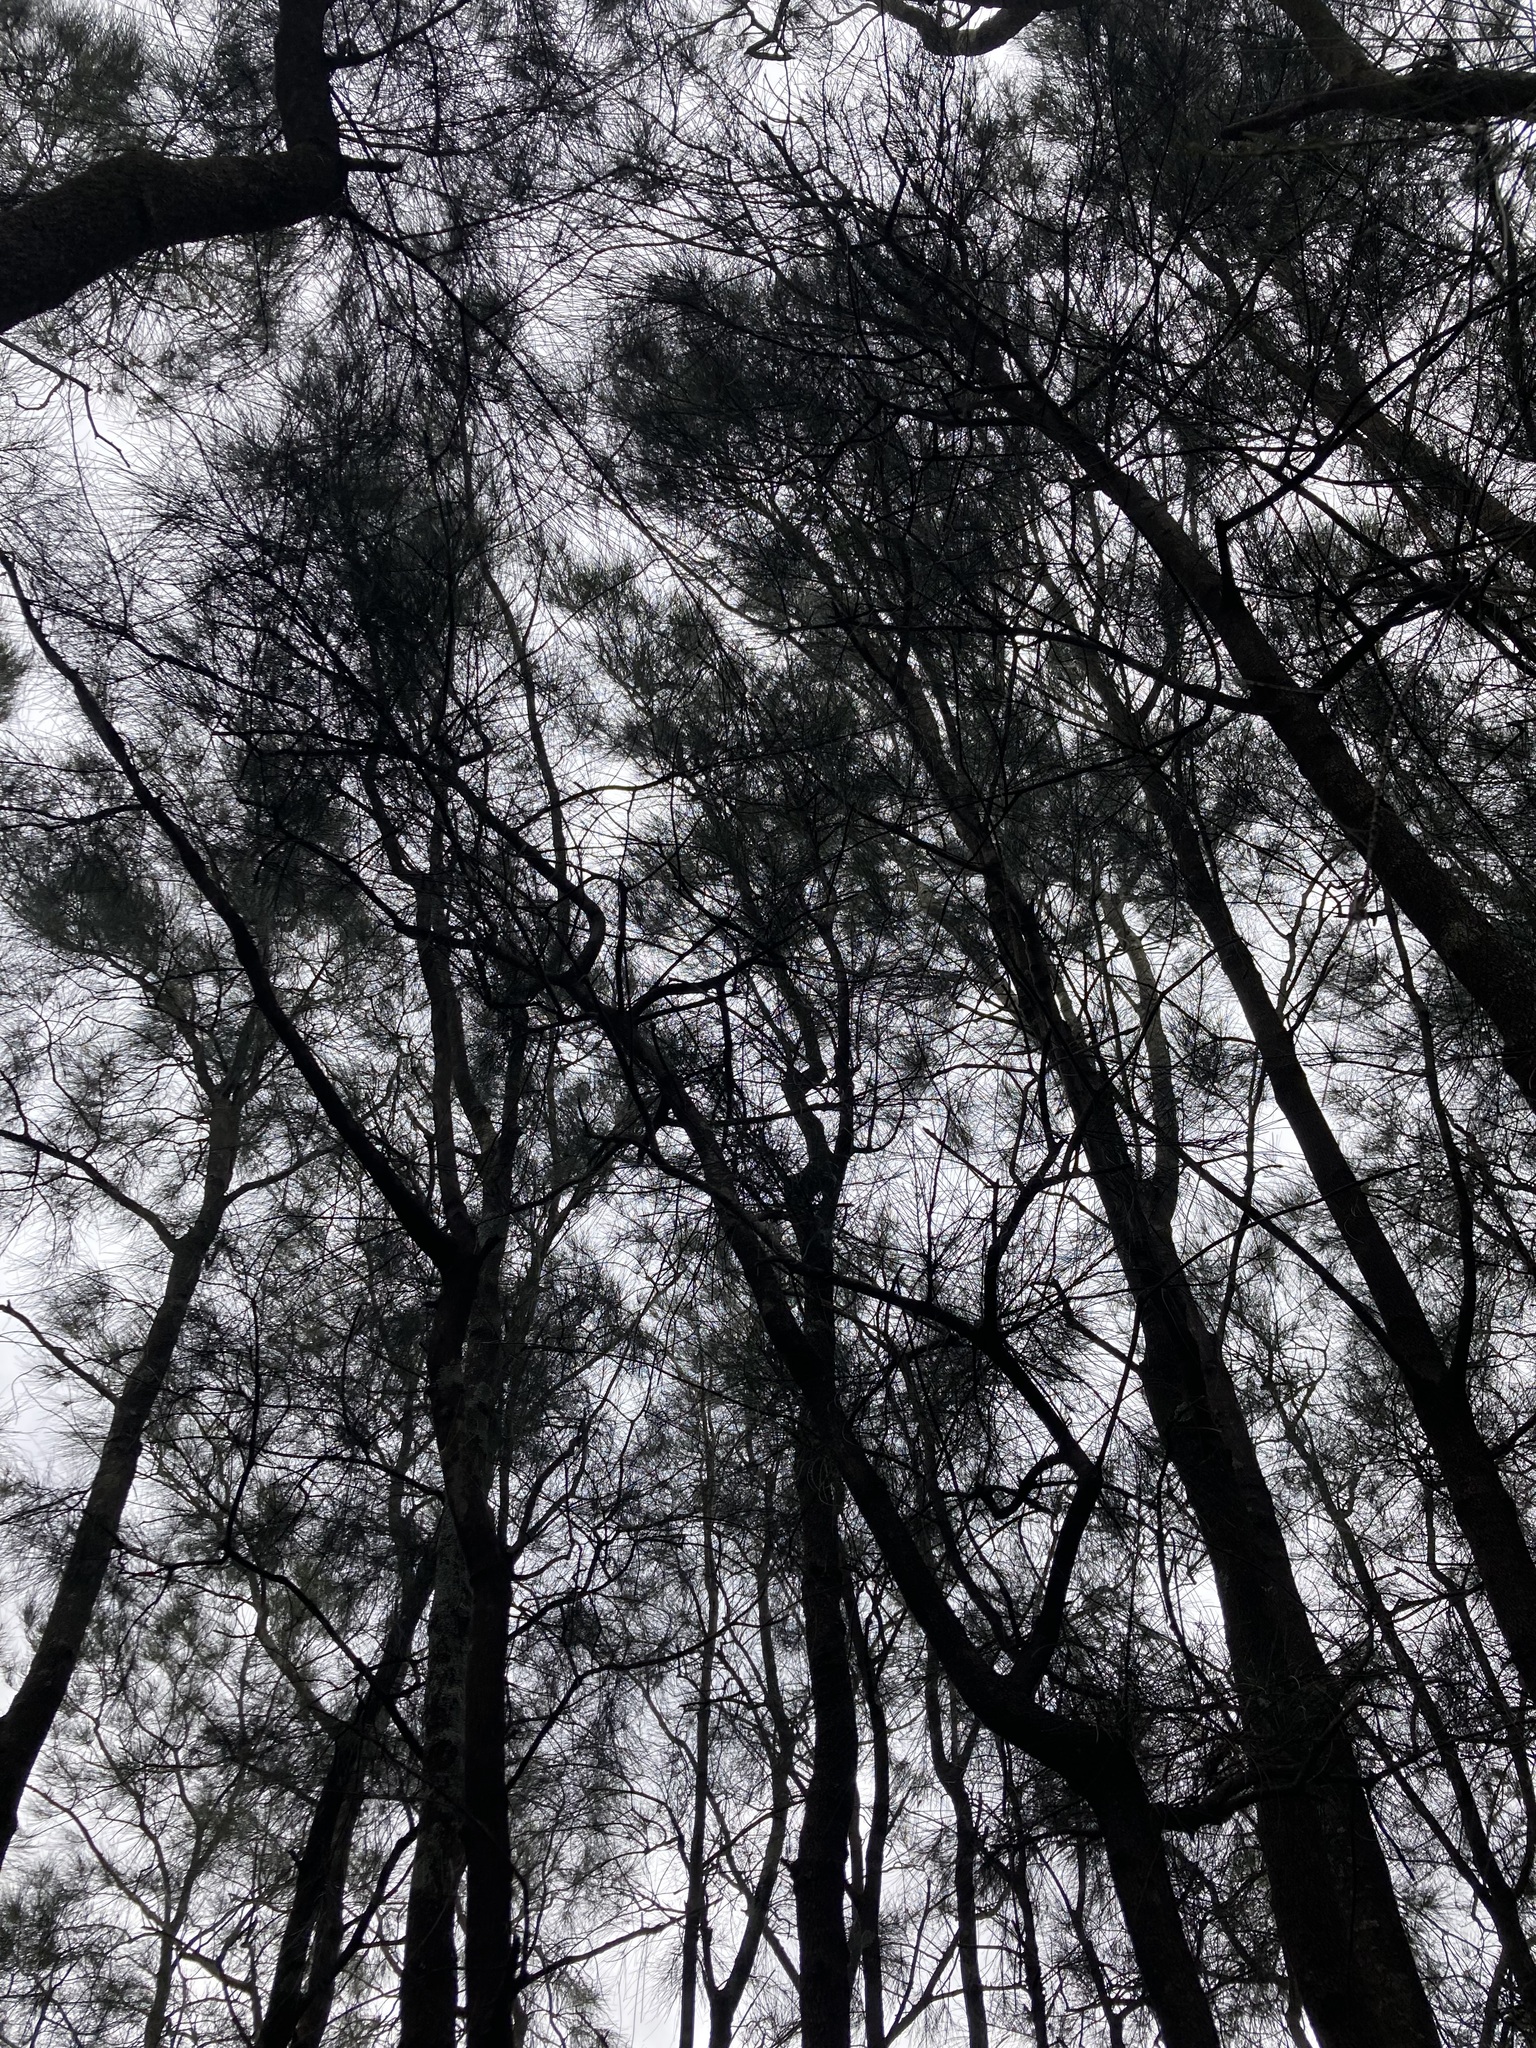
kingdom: Plantae
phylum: Tracheophyta
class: Magnoliopsida
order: Fagales
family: Casuarinaceae
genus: Casuarina
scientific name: Casuarina glauca
